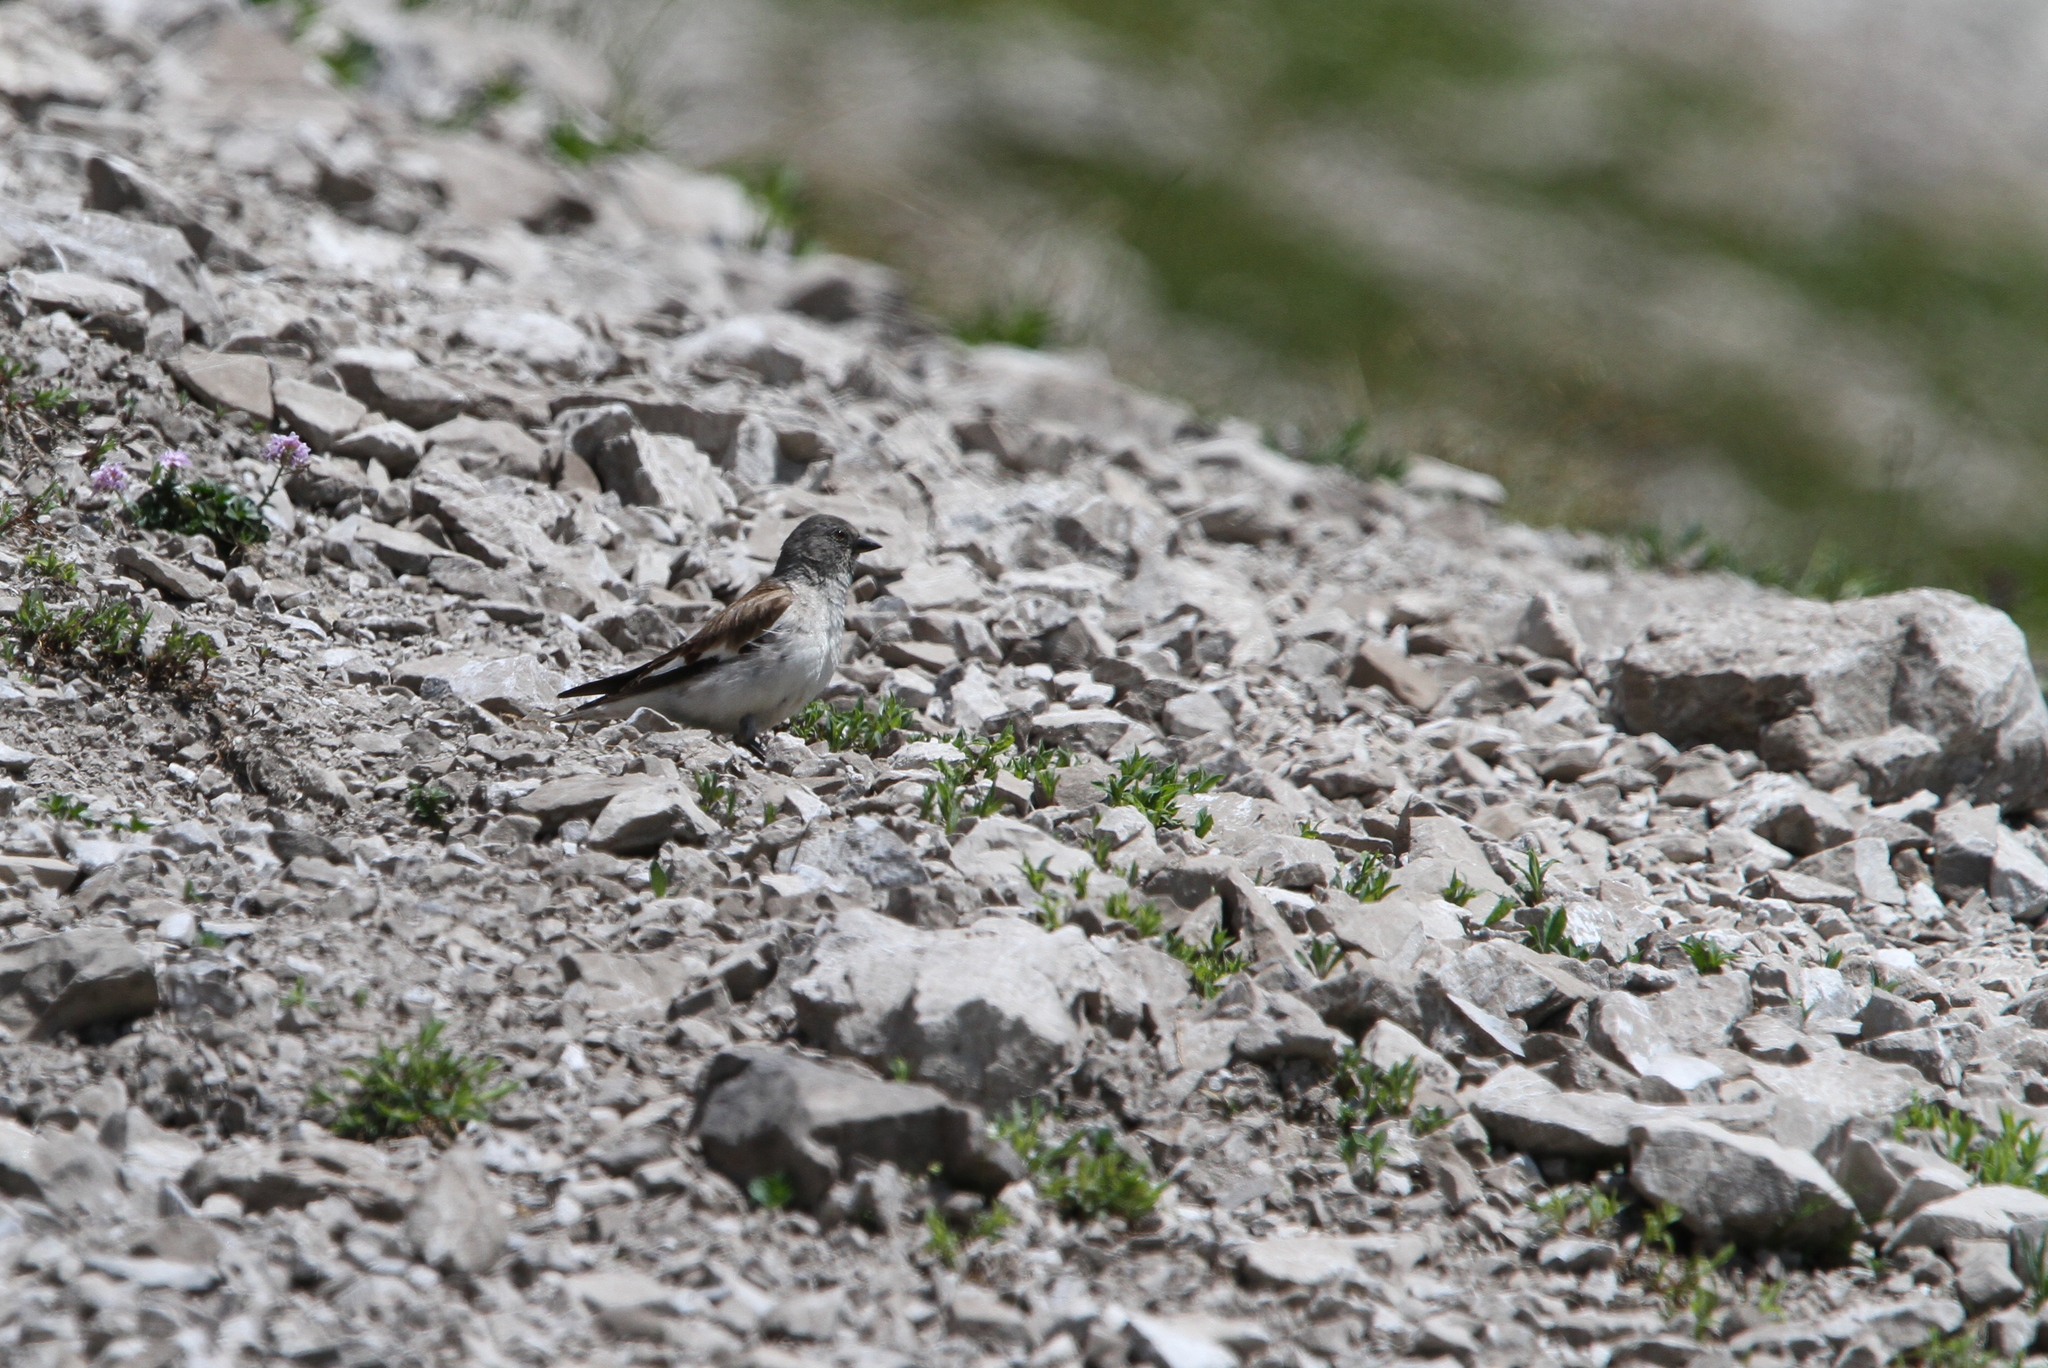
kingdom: Animalia
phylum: Chordata
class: Aves
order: Passeriformes
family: Passeridae
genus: Montifringilla
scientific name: Montifringilla nivalis
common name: White-winged snowfinch
